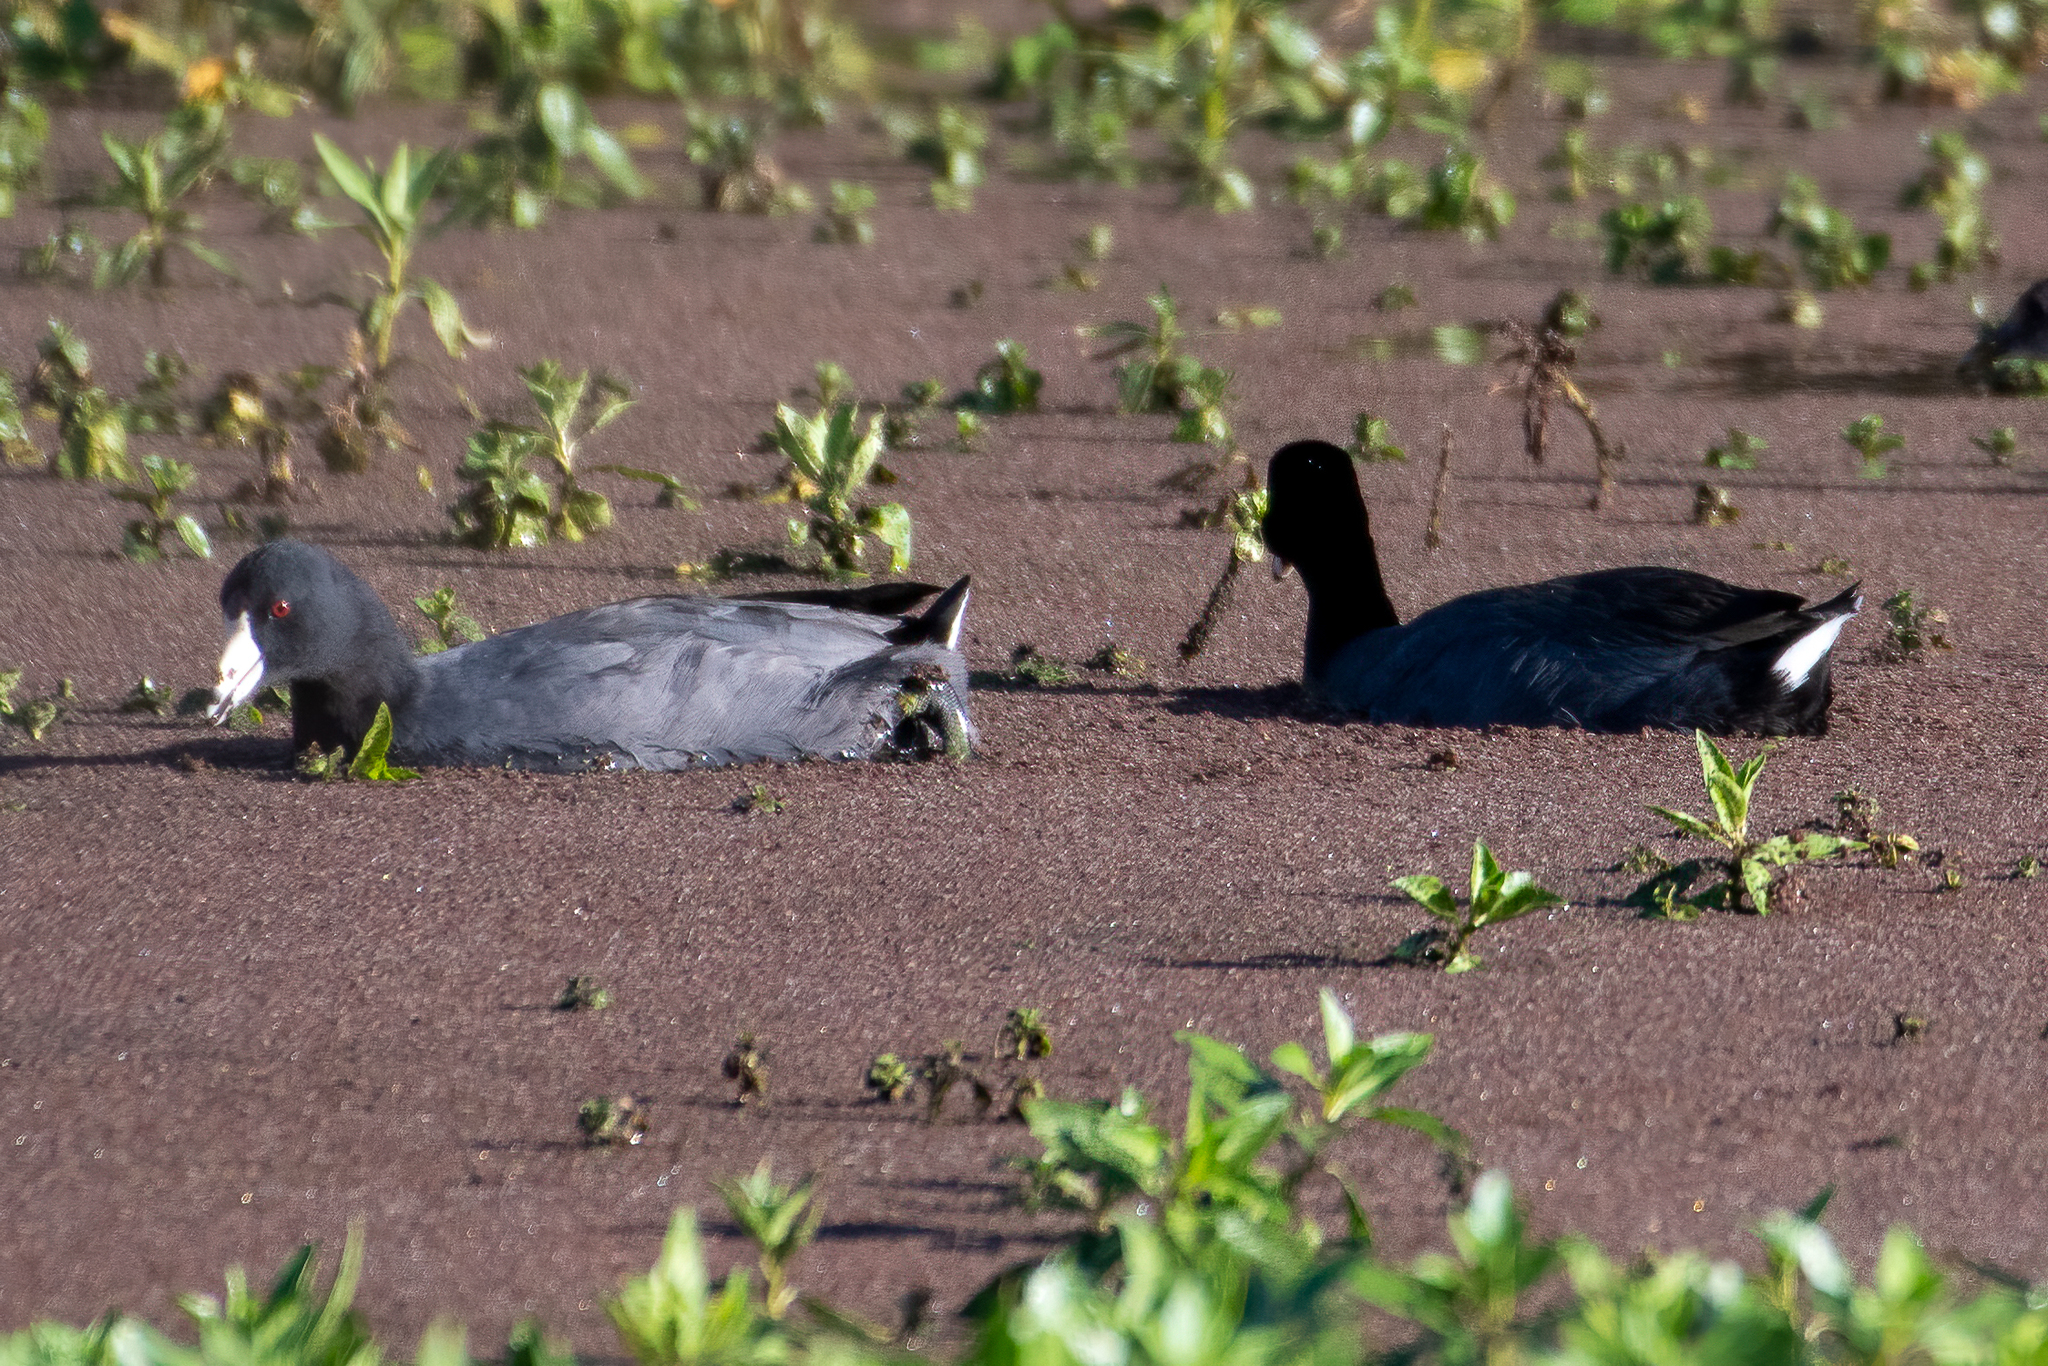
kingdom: Animalia
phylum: Chordata
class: Aves
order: Gruiformes
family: Rallidae
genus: Fulica
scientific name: Fulica americana
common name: American coot
